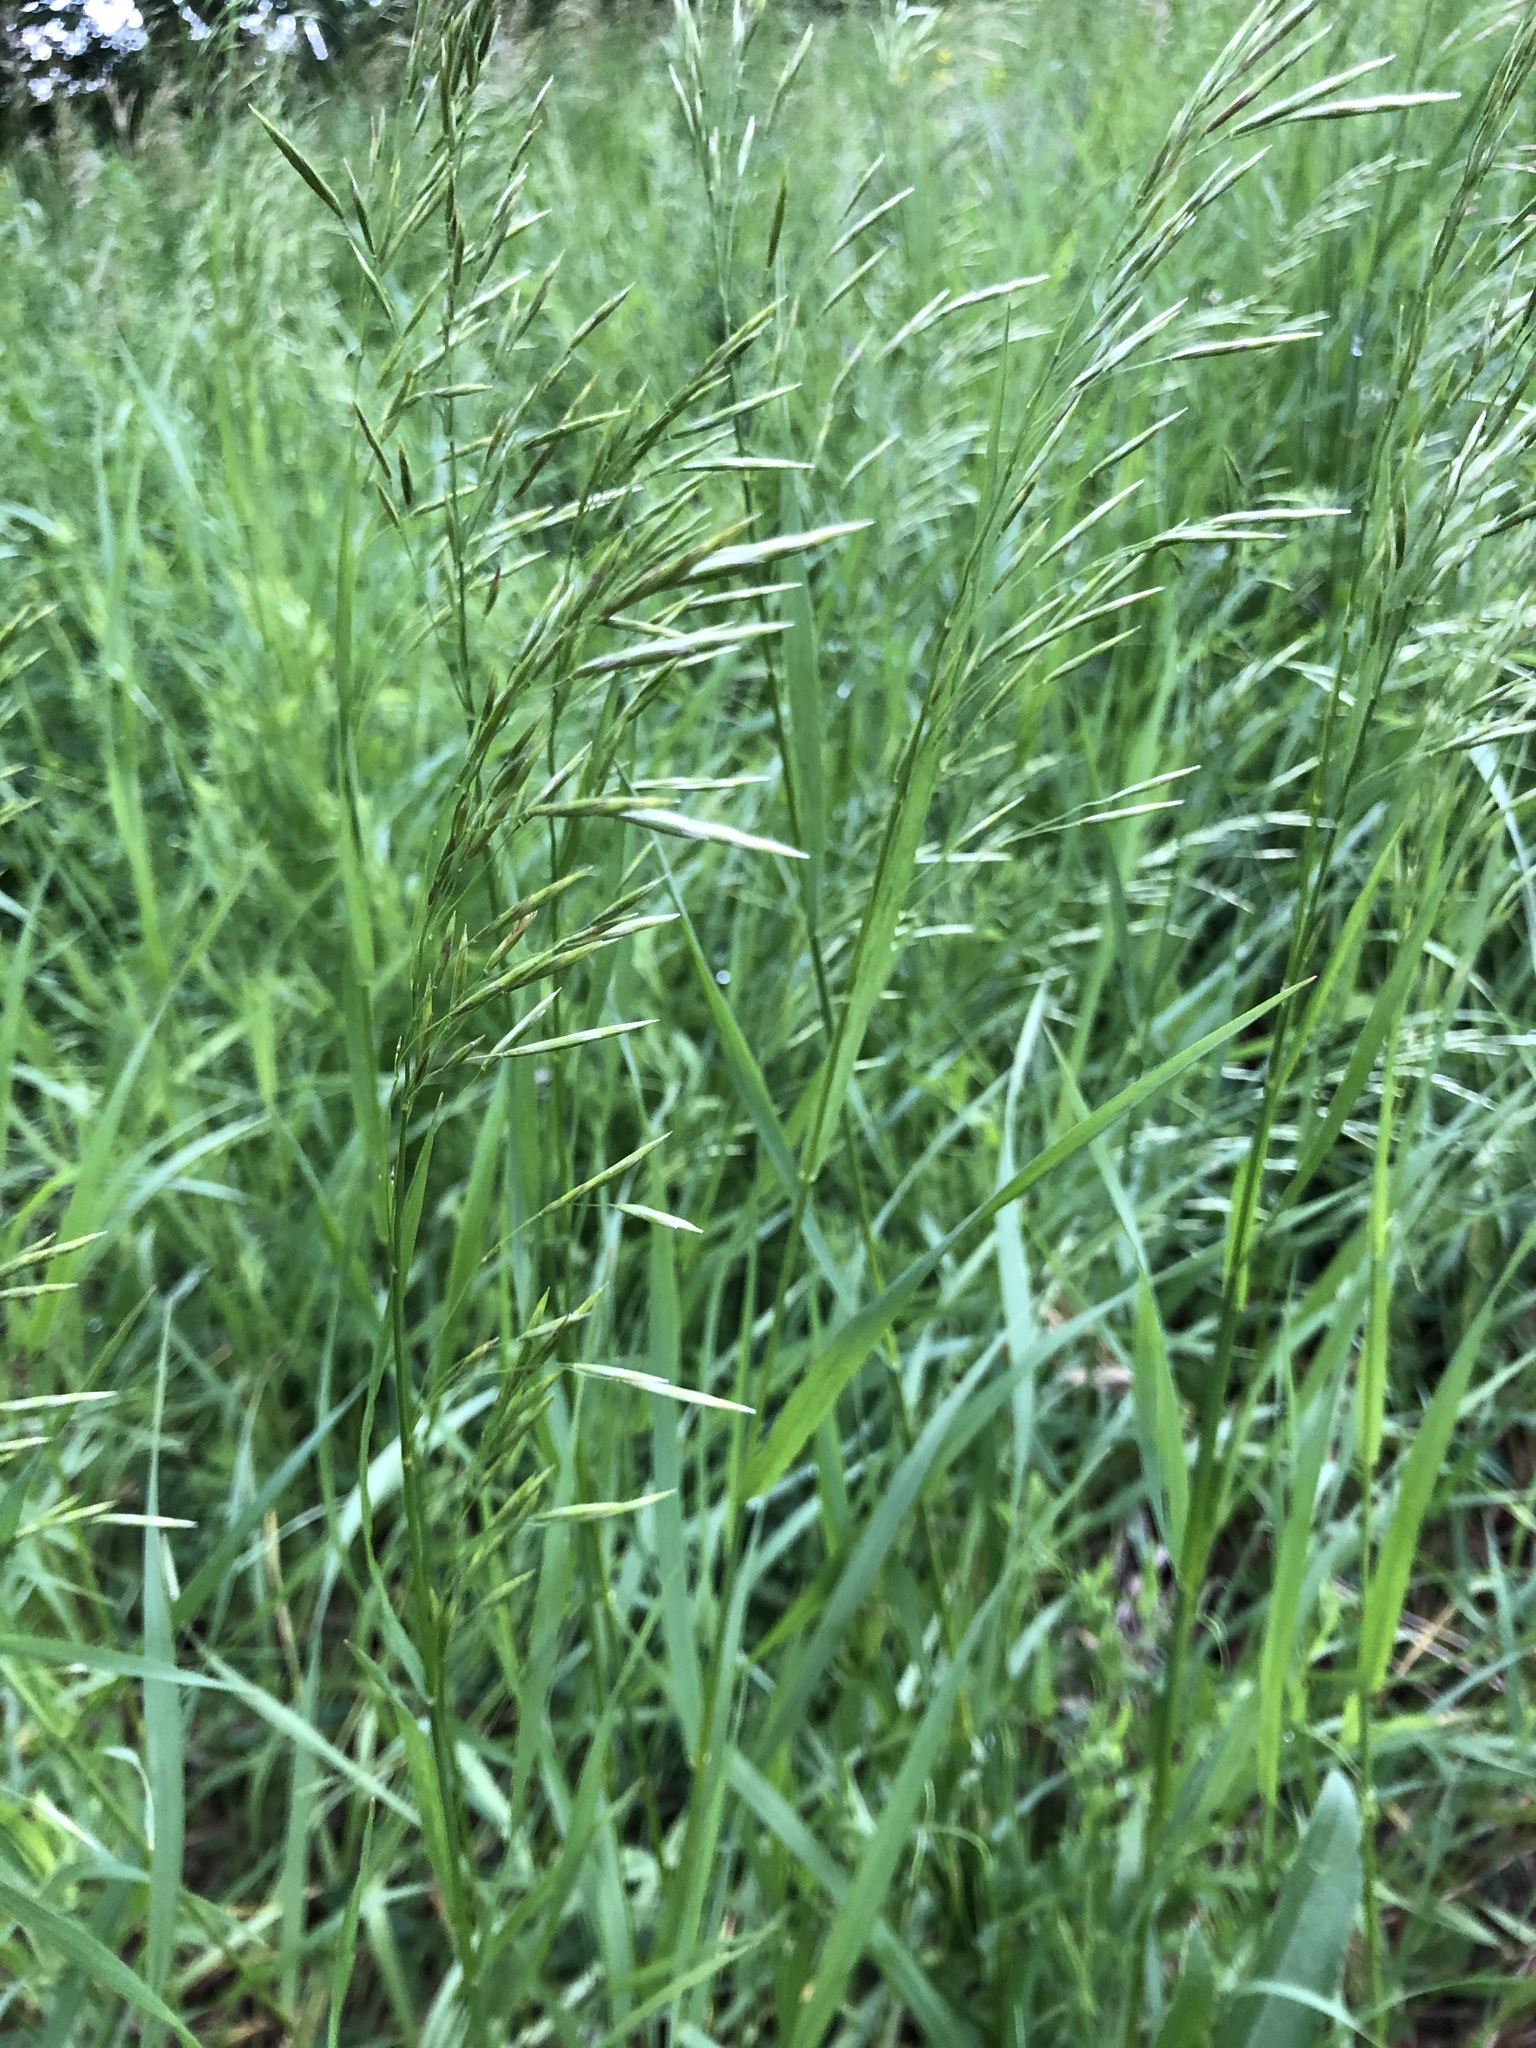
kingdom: Plantae
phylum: Tracheophyta
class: Liliopsida
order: Poales
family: Poaceae
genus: Bromus
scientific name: Bromus inermis
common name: Smooth brome
